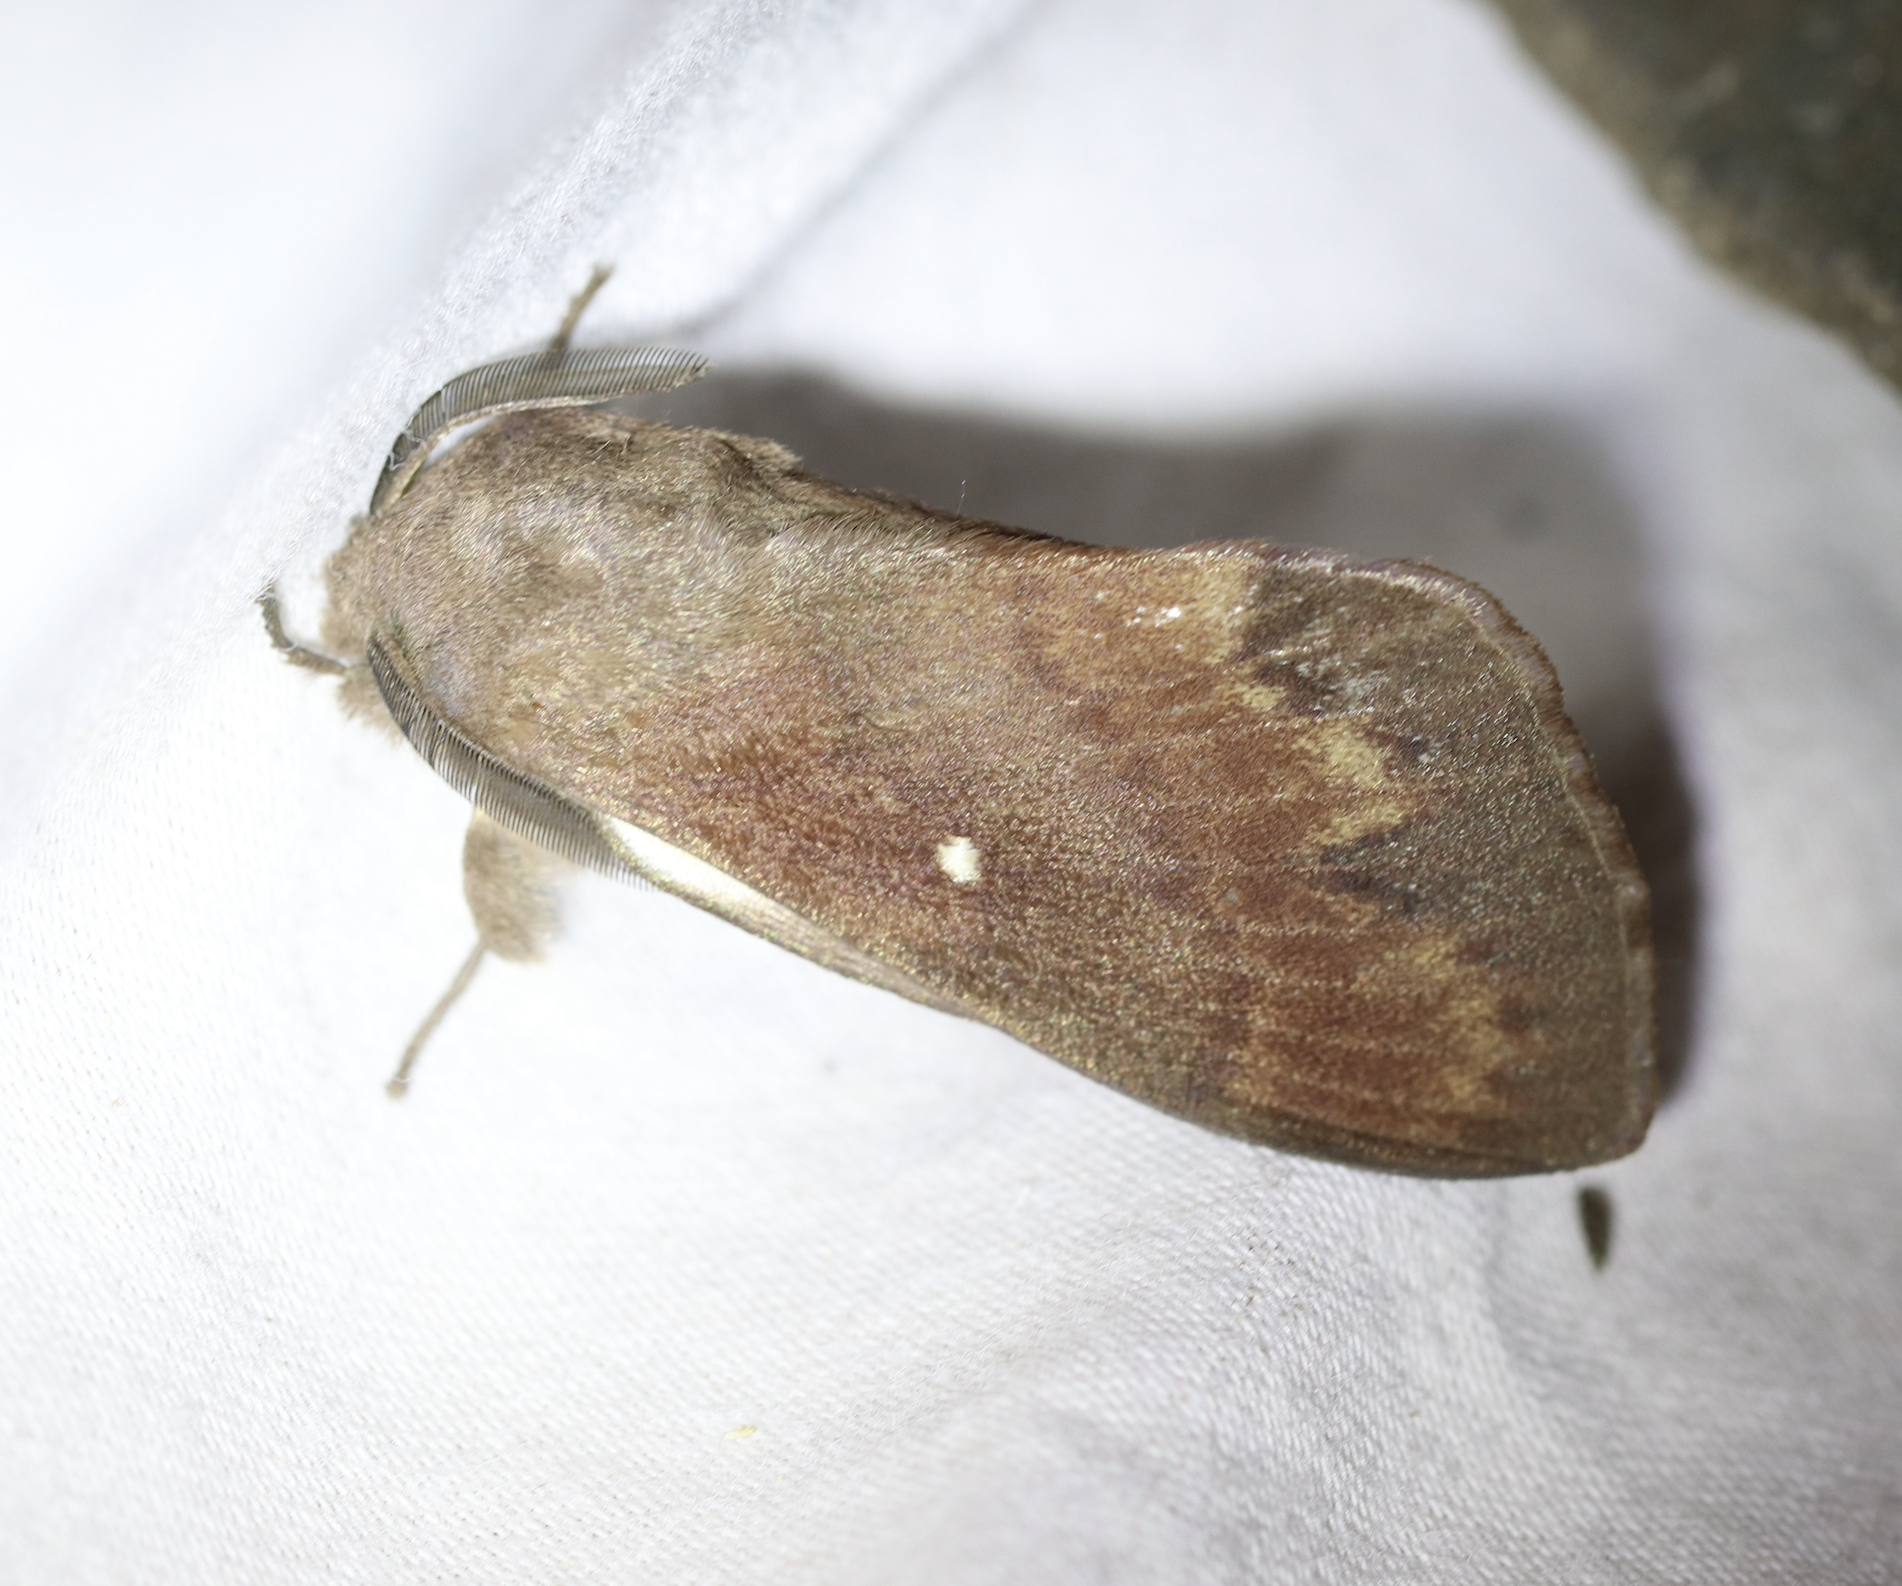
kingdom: Animalia
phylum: Arthropoda
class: Insecta
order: Lepidoptera
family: Lasiocampidae
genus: Dendrolimus
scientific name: Dendrolimus pini
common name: Pine-tree lappet
